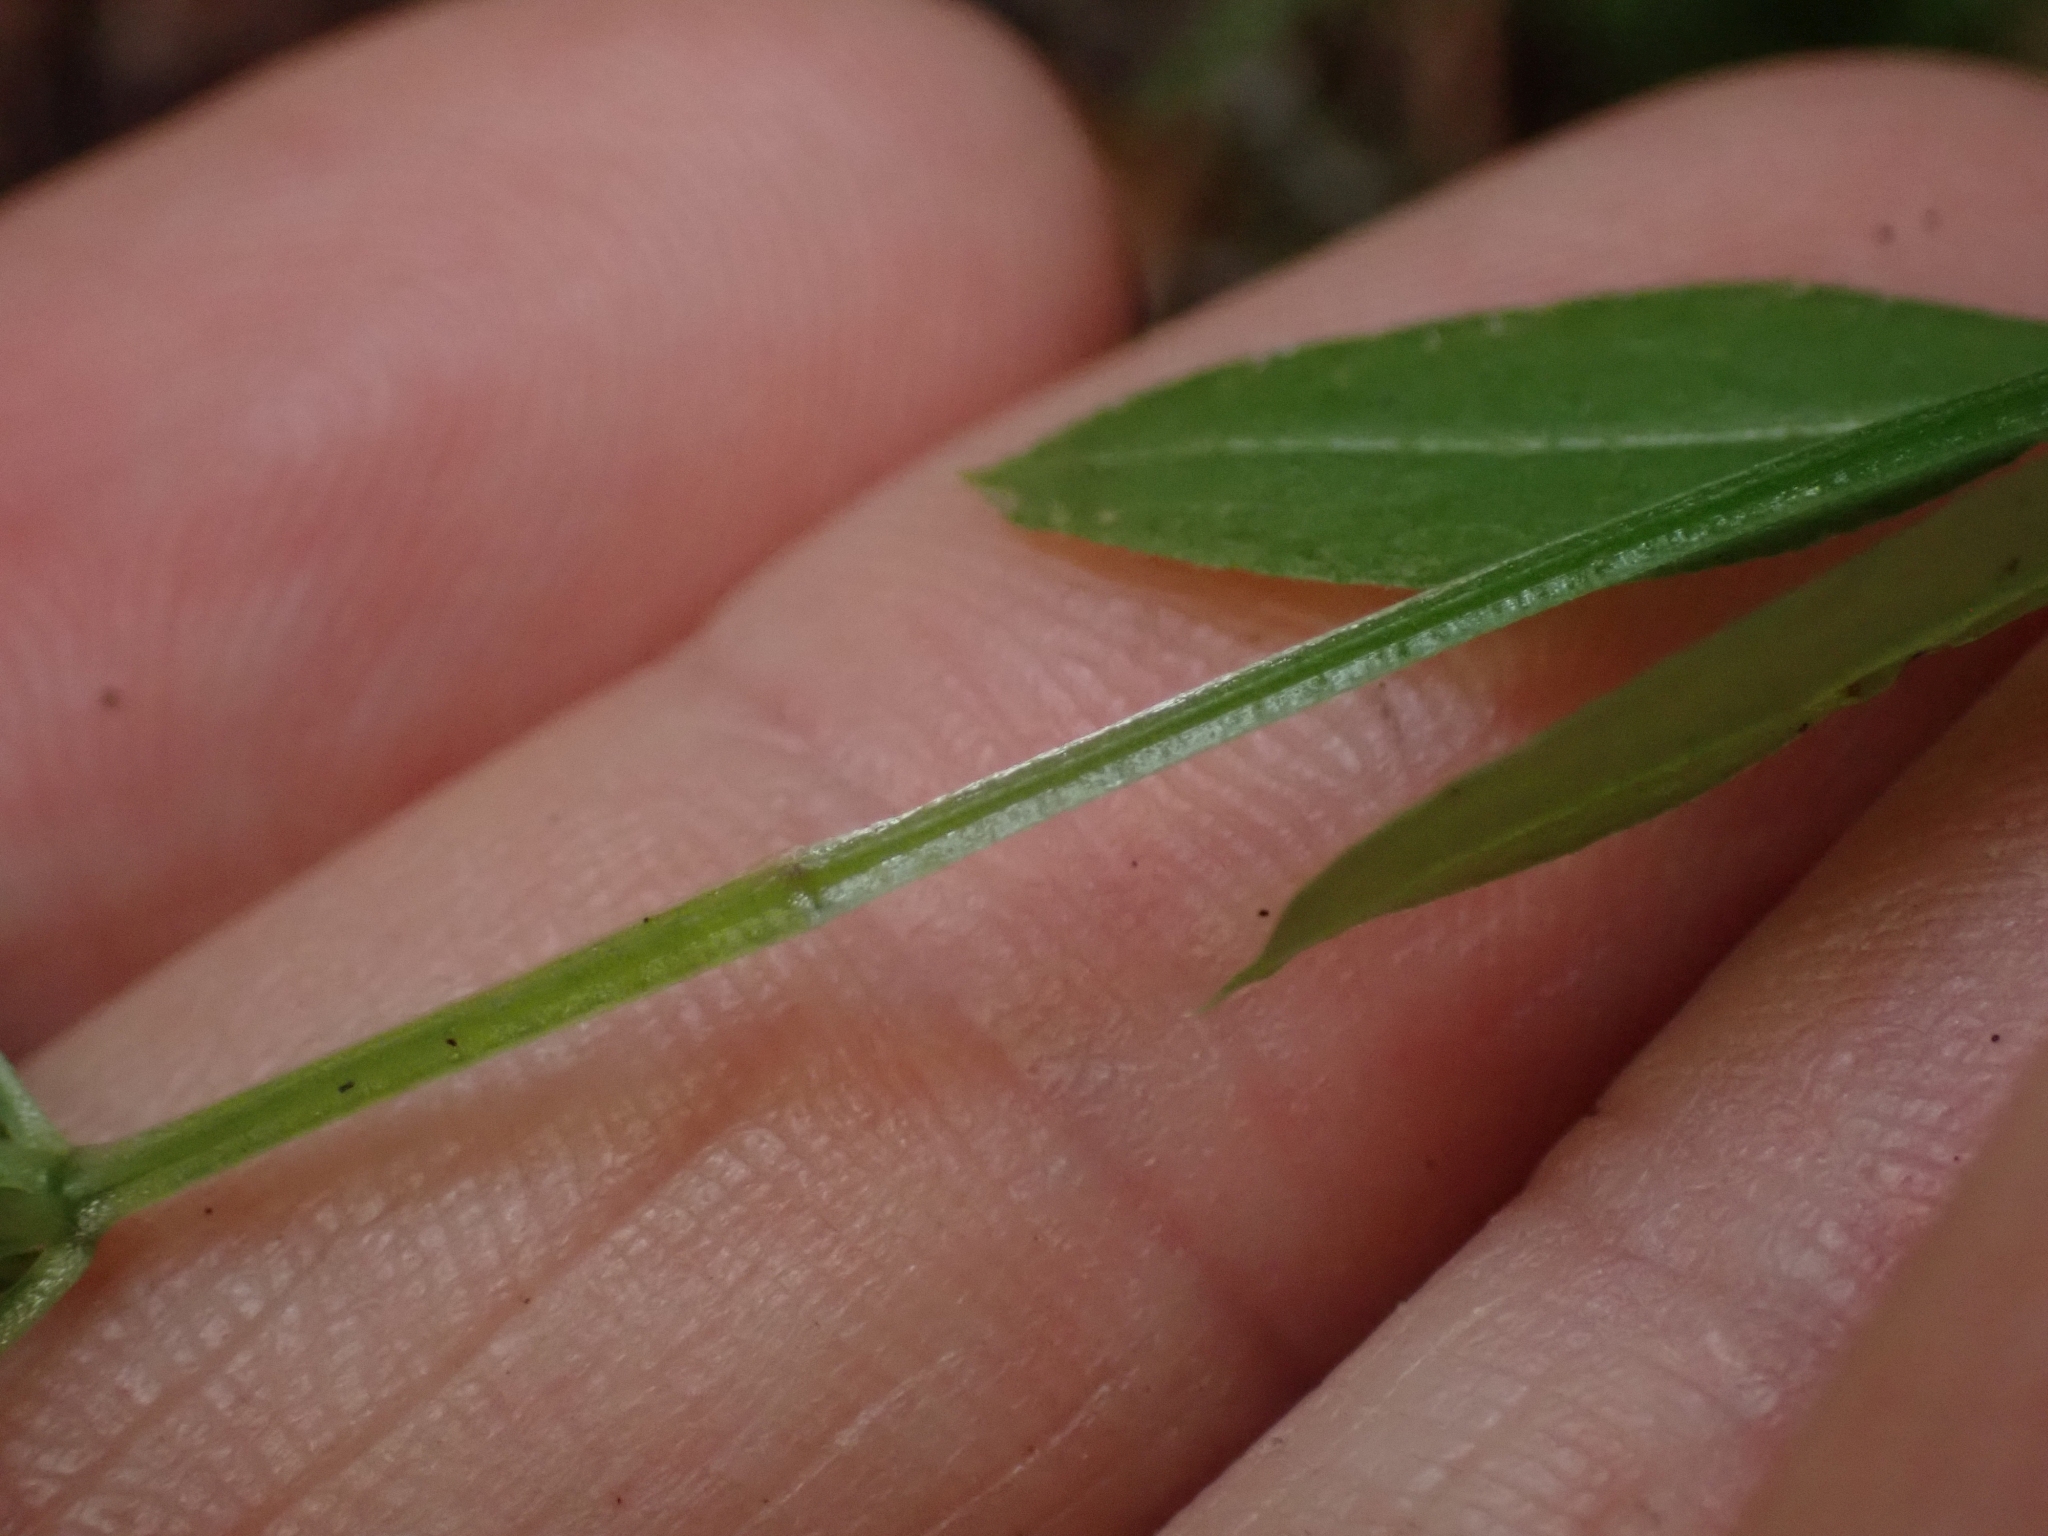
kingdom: Plantae
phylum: Tracheophyta
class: Magnoliopsida
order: Gentianales
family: Rubiaceae
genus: Galium
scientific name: Galium triflorum
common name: Fragrant bedstraw
